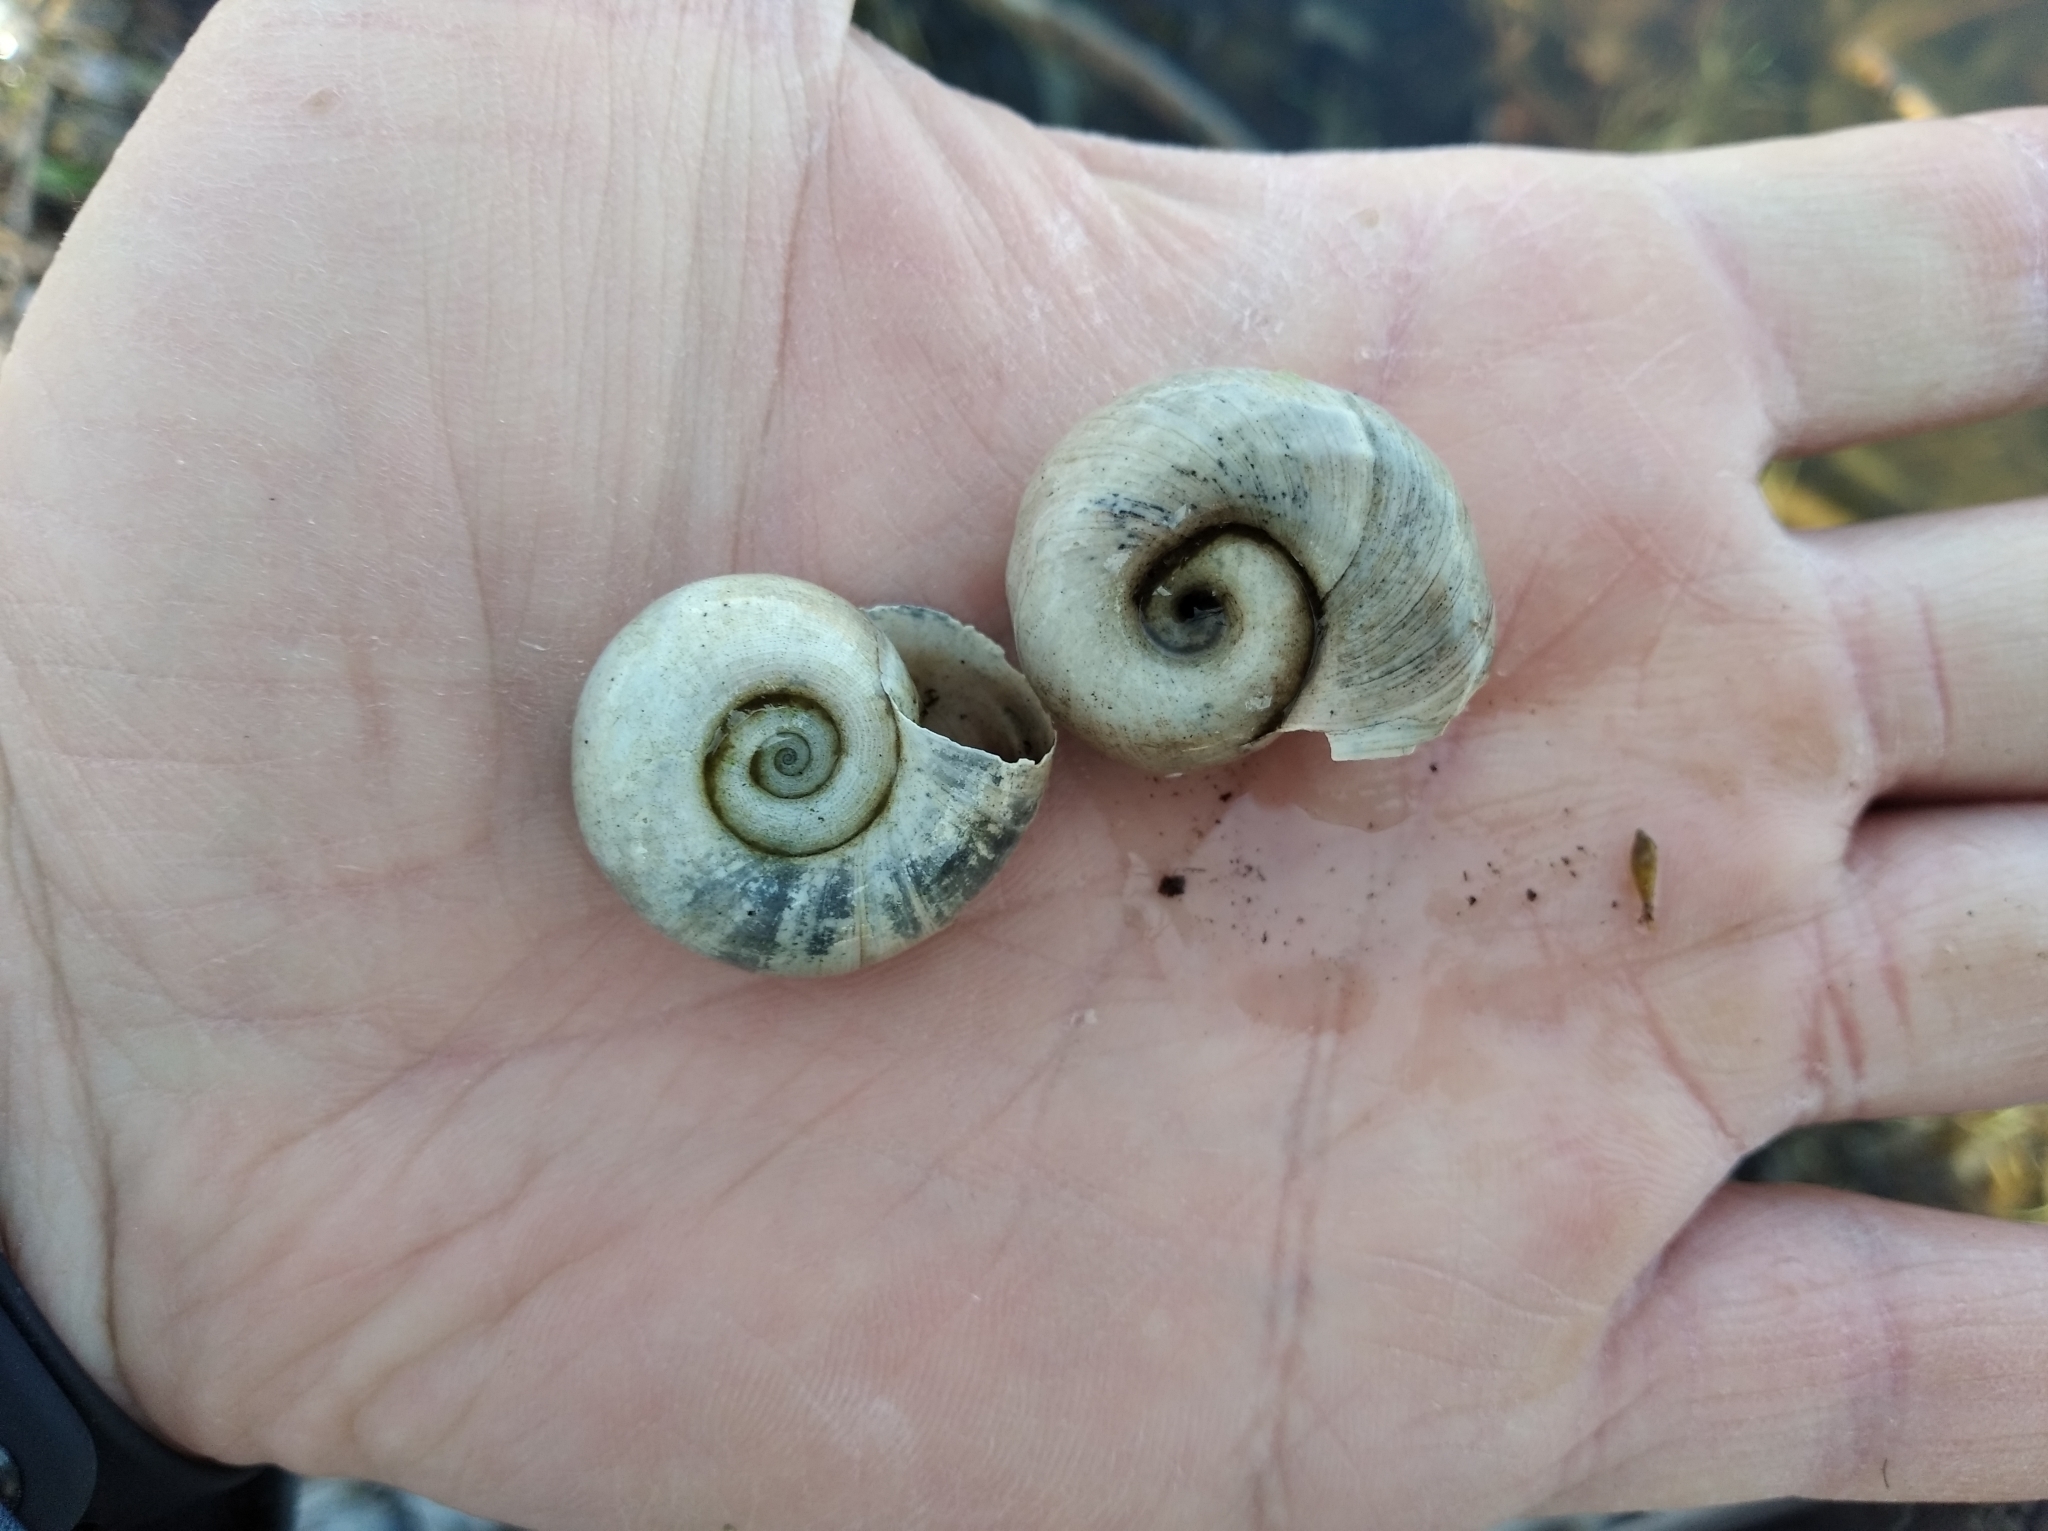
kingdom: Animalia
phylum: Mollusca
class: Gastropoda
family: Planorbidae
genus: Planorbarius
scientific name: Planorbarius corneus
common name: Great ramshorn
